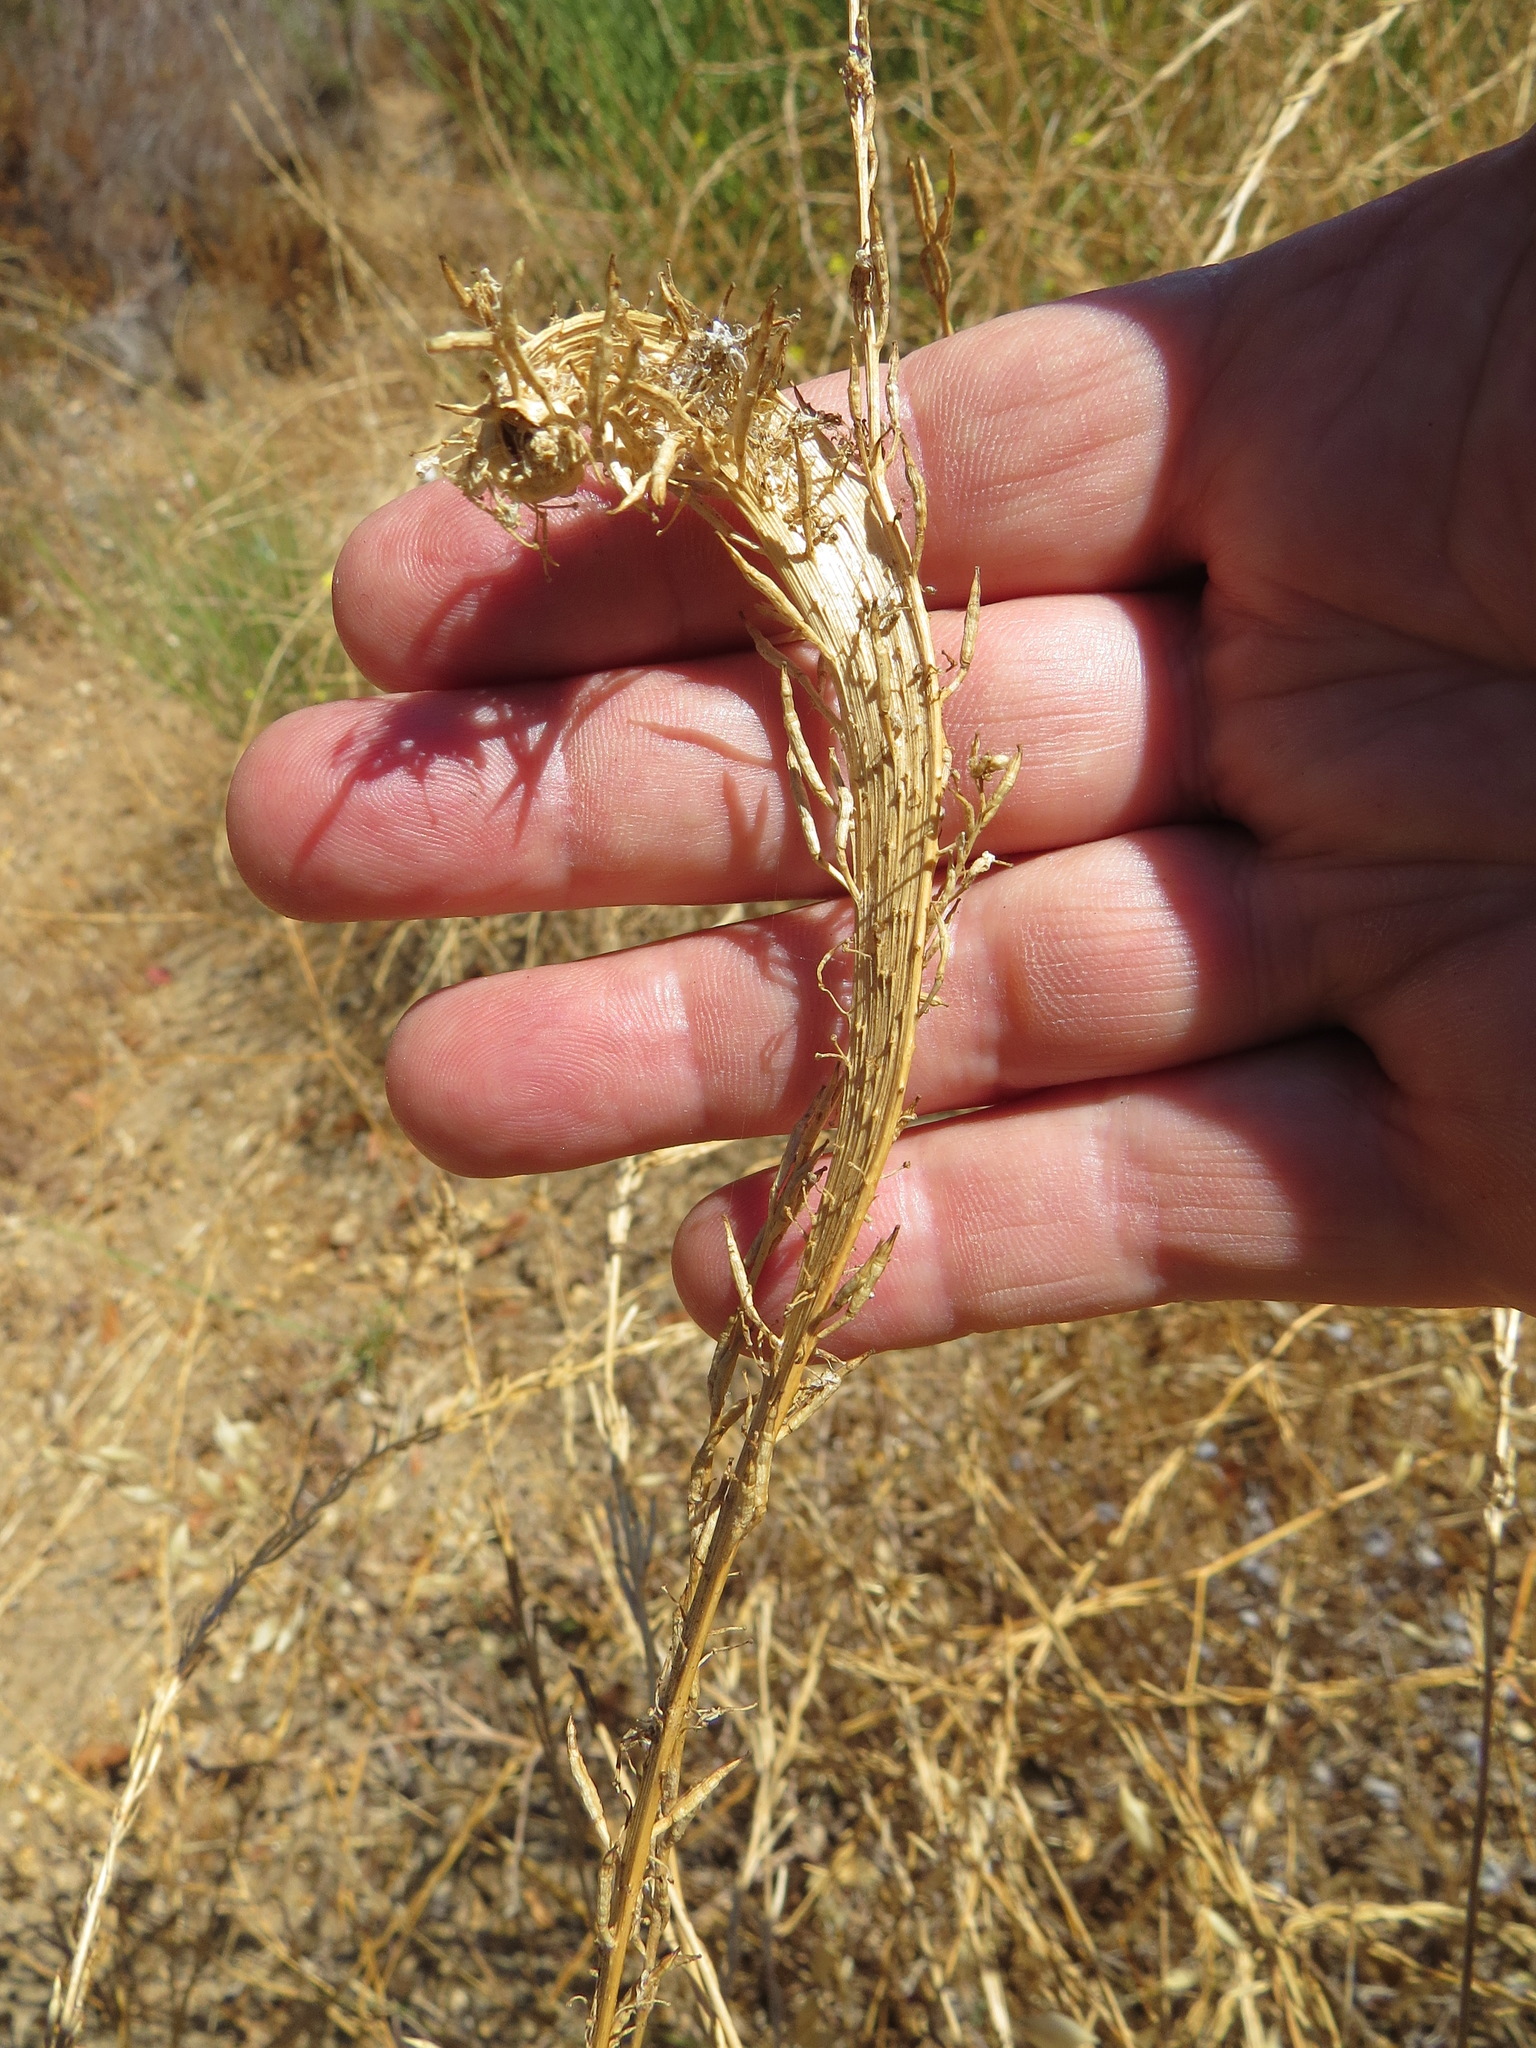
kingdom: Plantae
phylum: Tracheophyta
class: Magnoliopsida
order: Brassicales
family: Brassicaceae
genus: Hirschfeldia
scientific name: Hirschfeldia incana
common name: Hoary mustard
